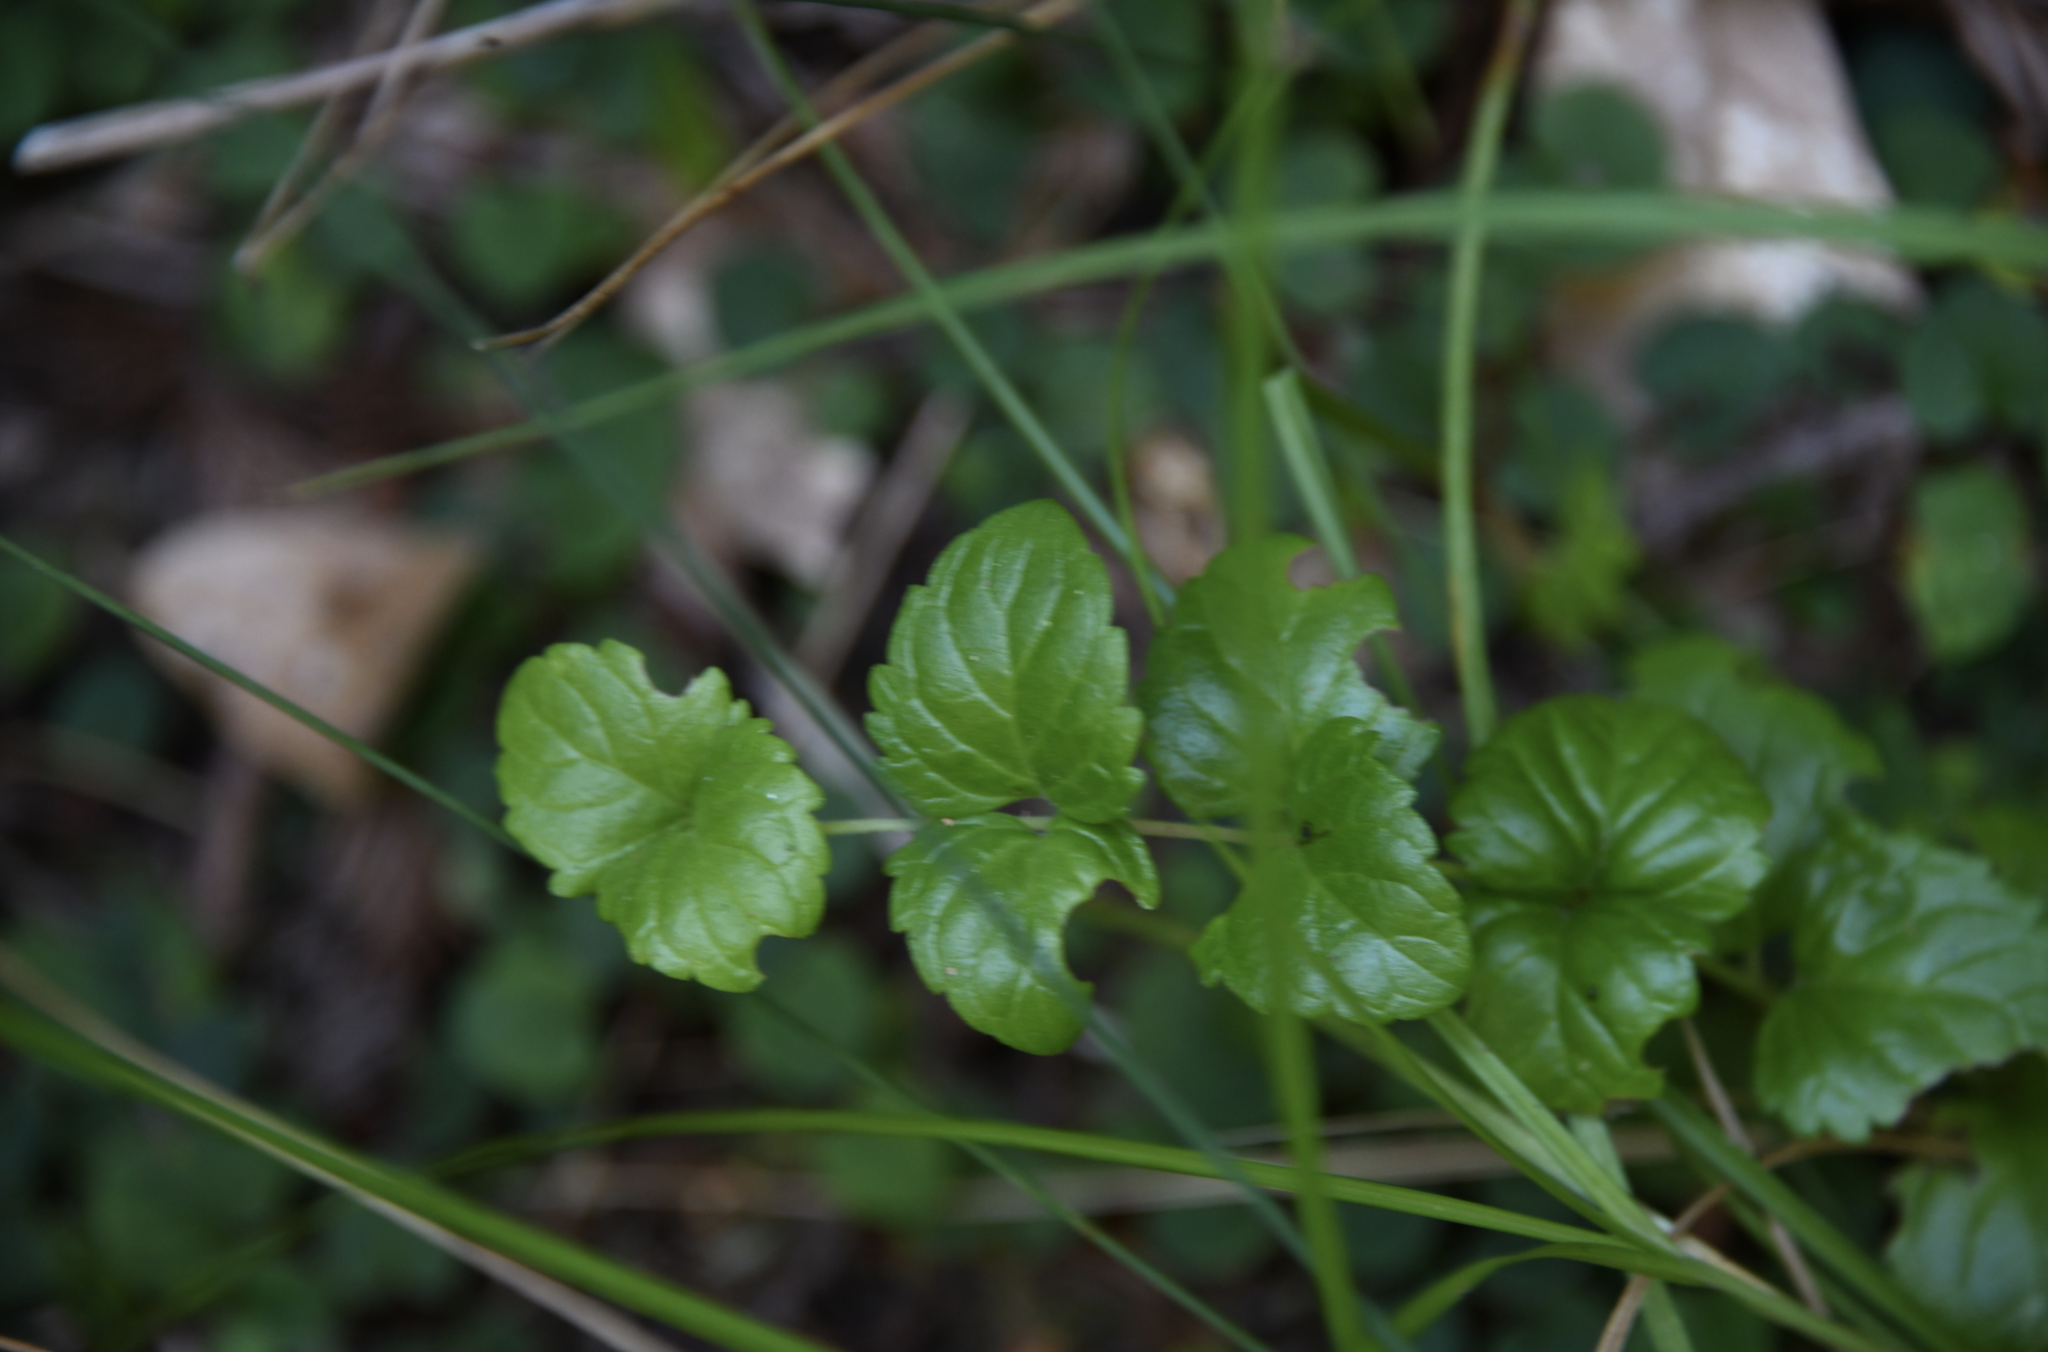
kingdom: Plantae
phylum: Tracheophyta
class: Magnoliopsida
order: Lamiales
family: Lamiaceae
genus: Micromeria
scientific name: Micromeria douglasii
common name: Yerba buena
